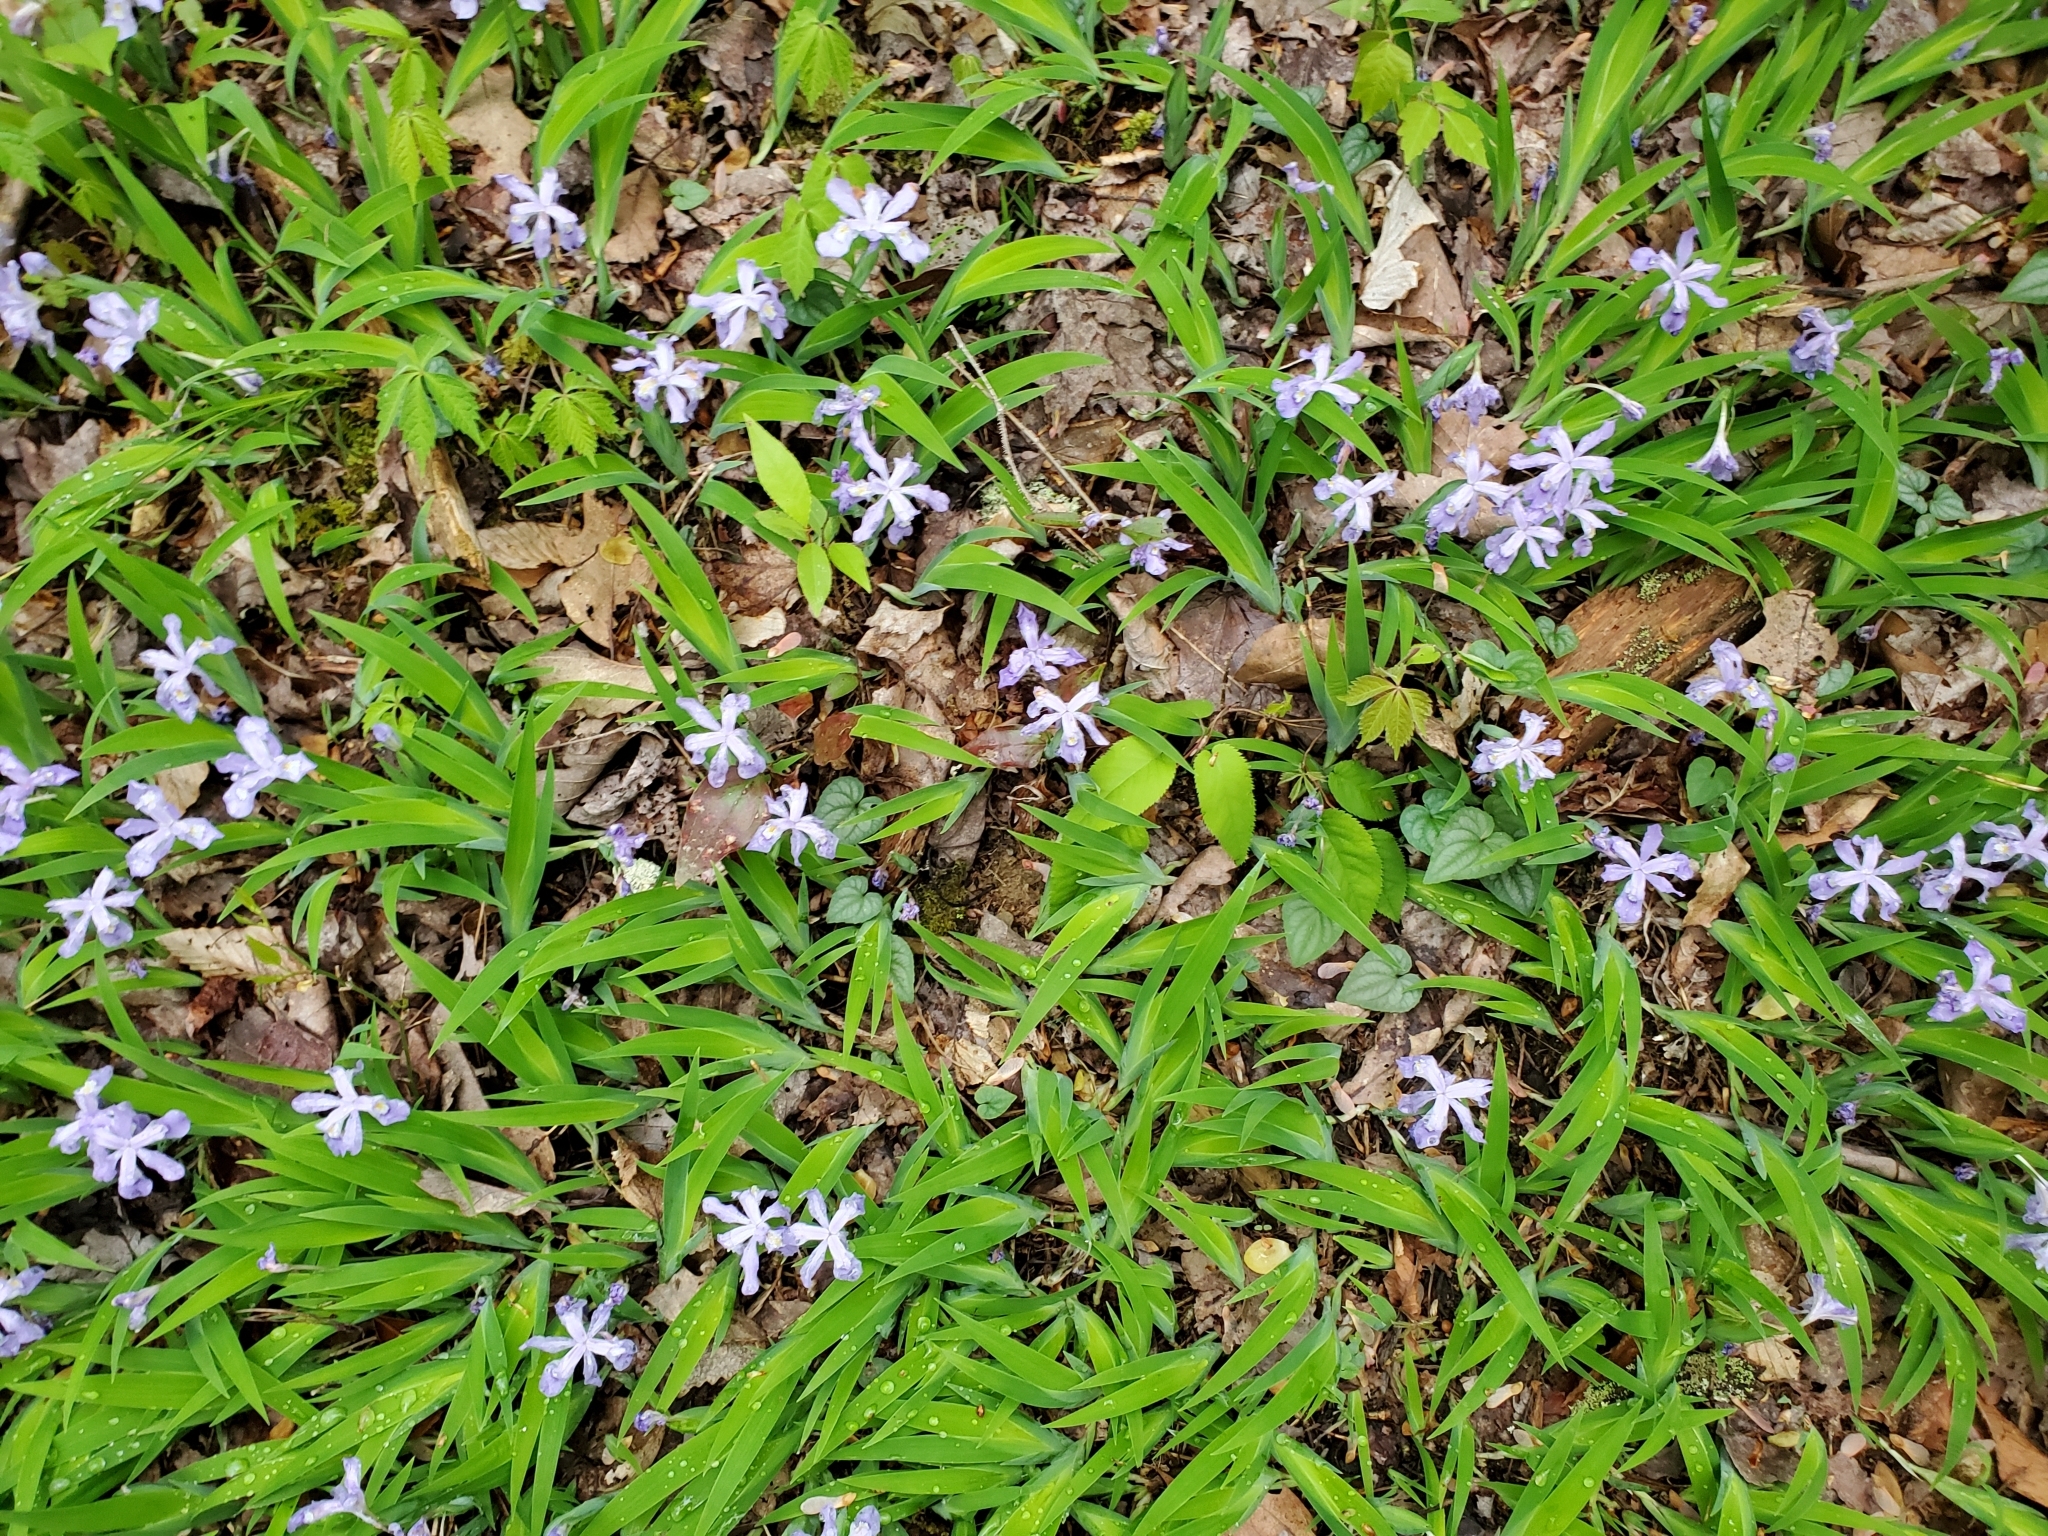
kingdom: Plantae
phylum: Tracheophyta
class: Liliopsida
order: Asparagales
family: Iridaceae
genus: Iris
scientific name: Iris cristata
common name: Crested iris
